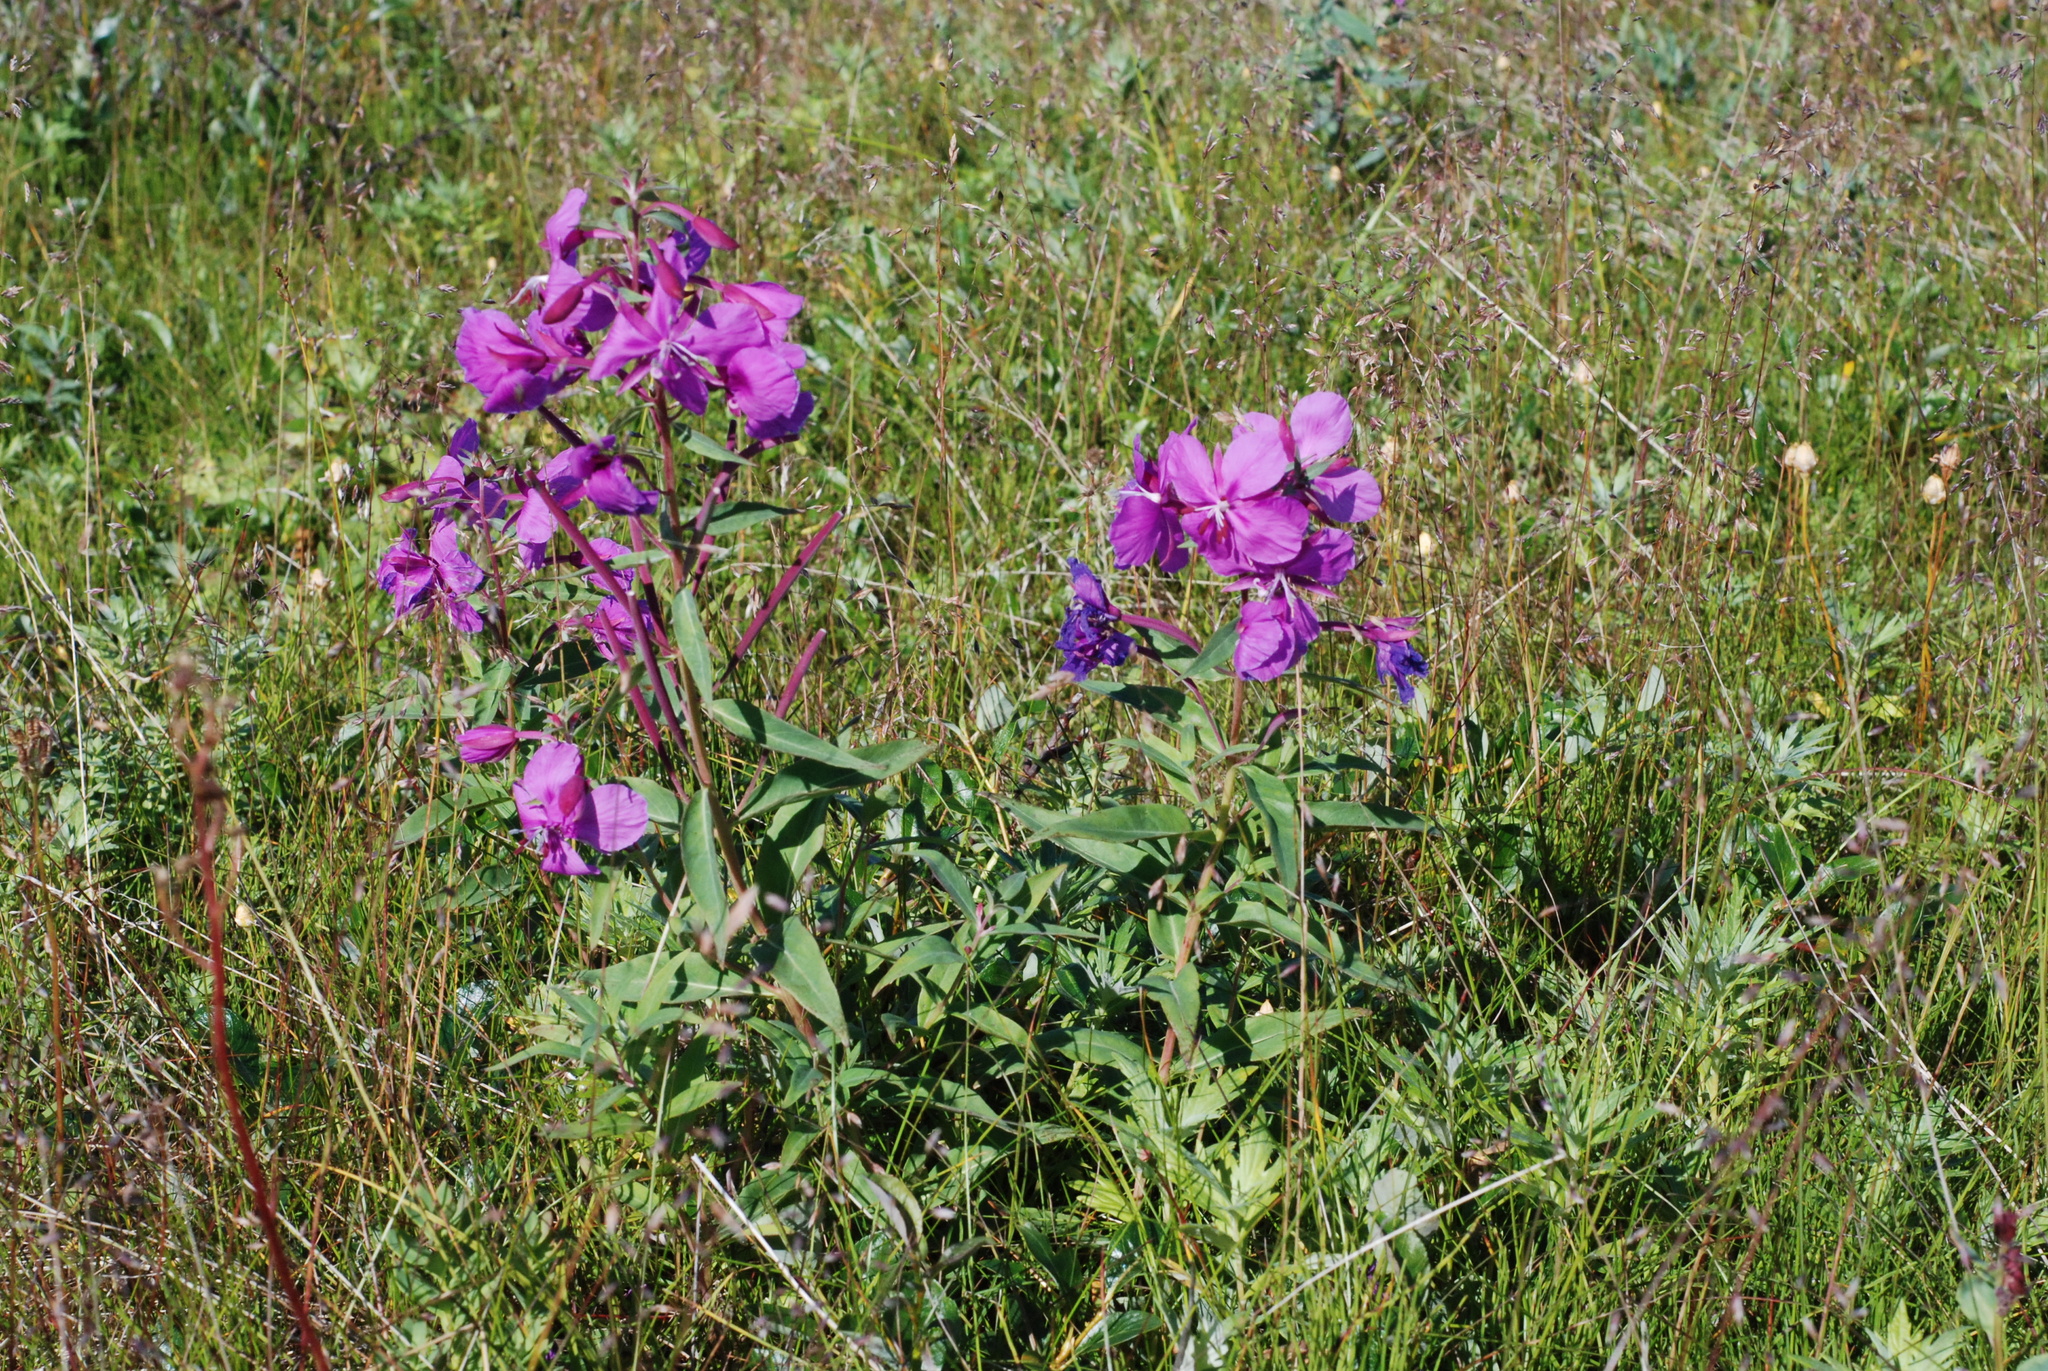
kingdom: Plantae
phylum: Tracheophyta
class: Magnoliopsida
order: Myrtales
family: Onagraceae
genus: Chamaenerion
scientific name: Chamaenerion latifolium
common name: Dwarf fireweed
